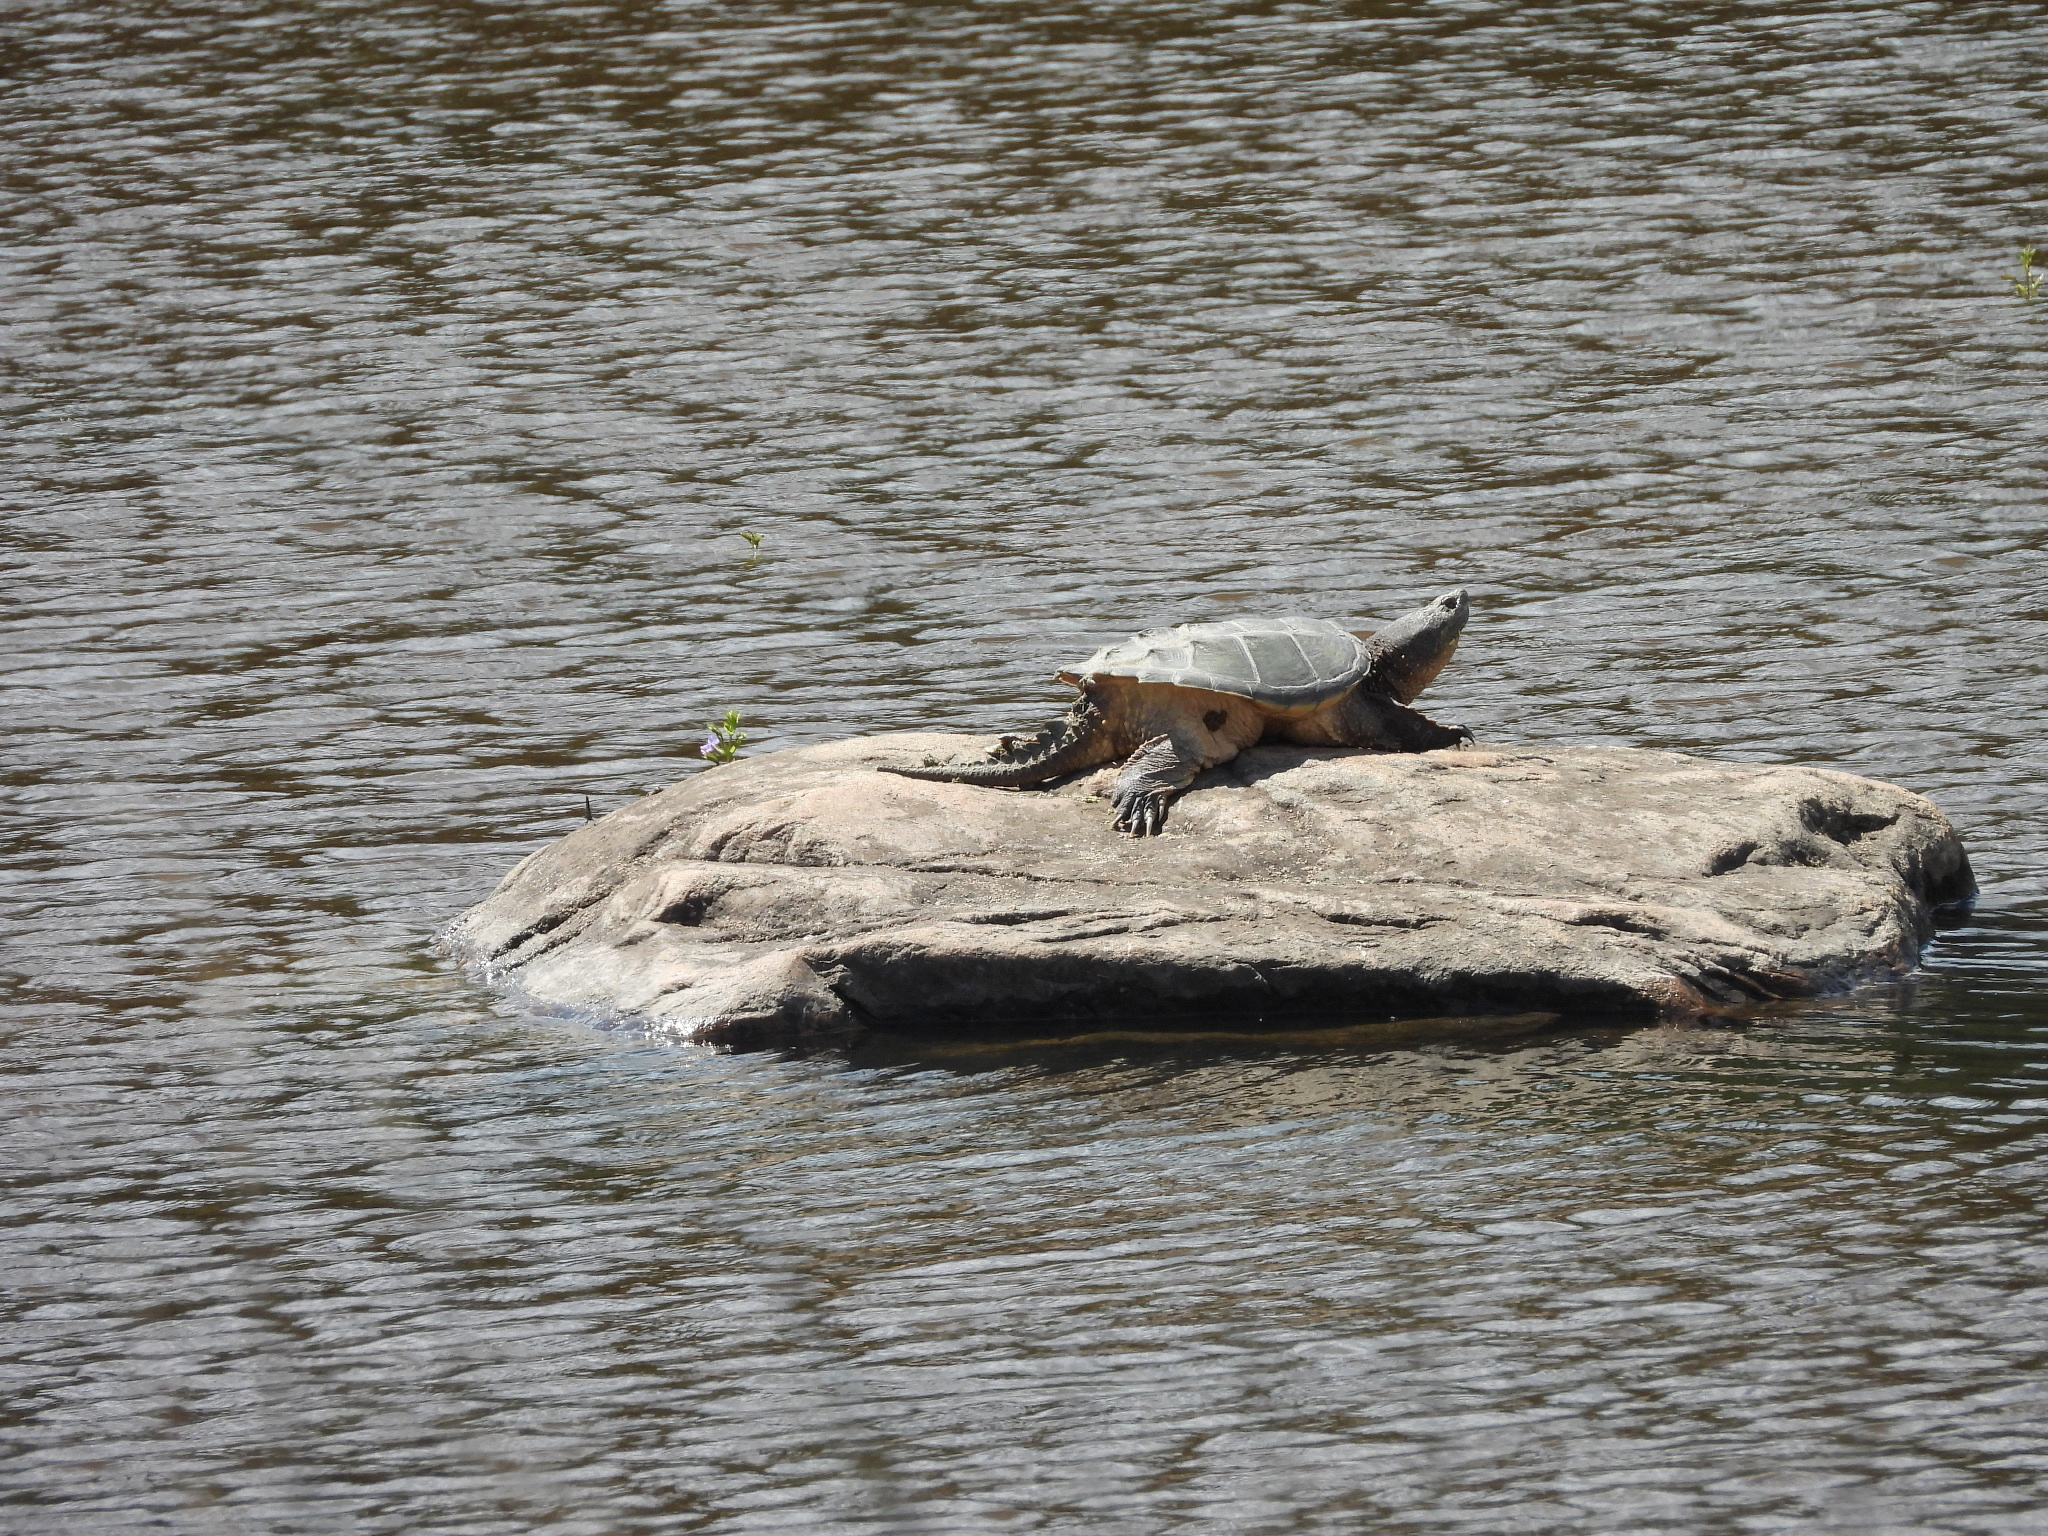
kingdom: Animalia
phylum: Chordata
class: Testudines
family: Chelydridae
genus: Chelydra
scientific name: Chelydra serpentina
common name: Common snapping turtle
